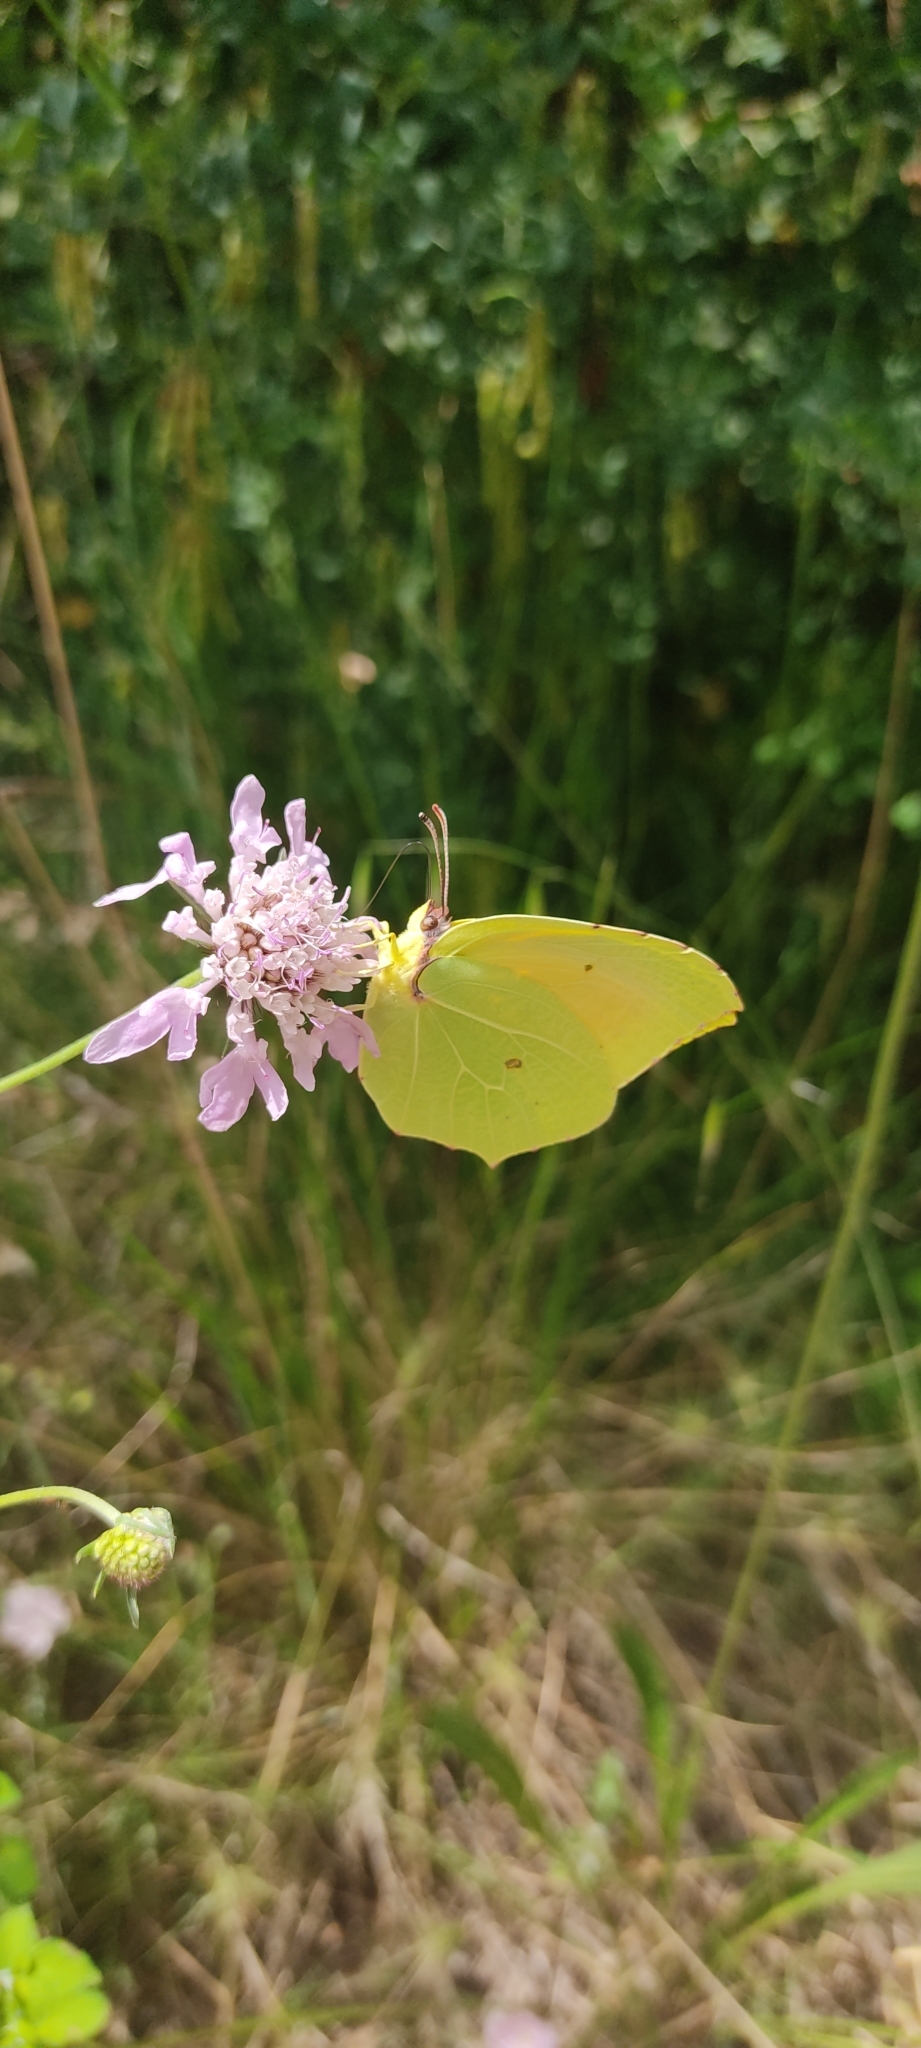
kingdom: Animalia
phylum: Arthropoda
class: Insecta
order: Lepidoptera
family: Pieridae
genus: Gonepteryx
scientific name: Gonepteryx cleopatra
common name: Cleopatra
